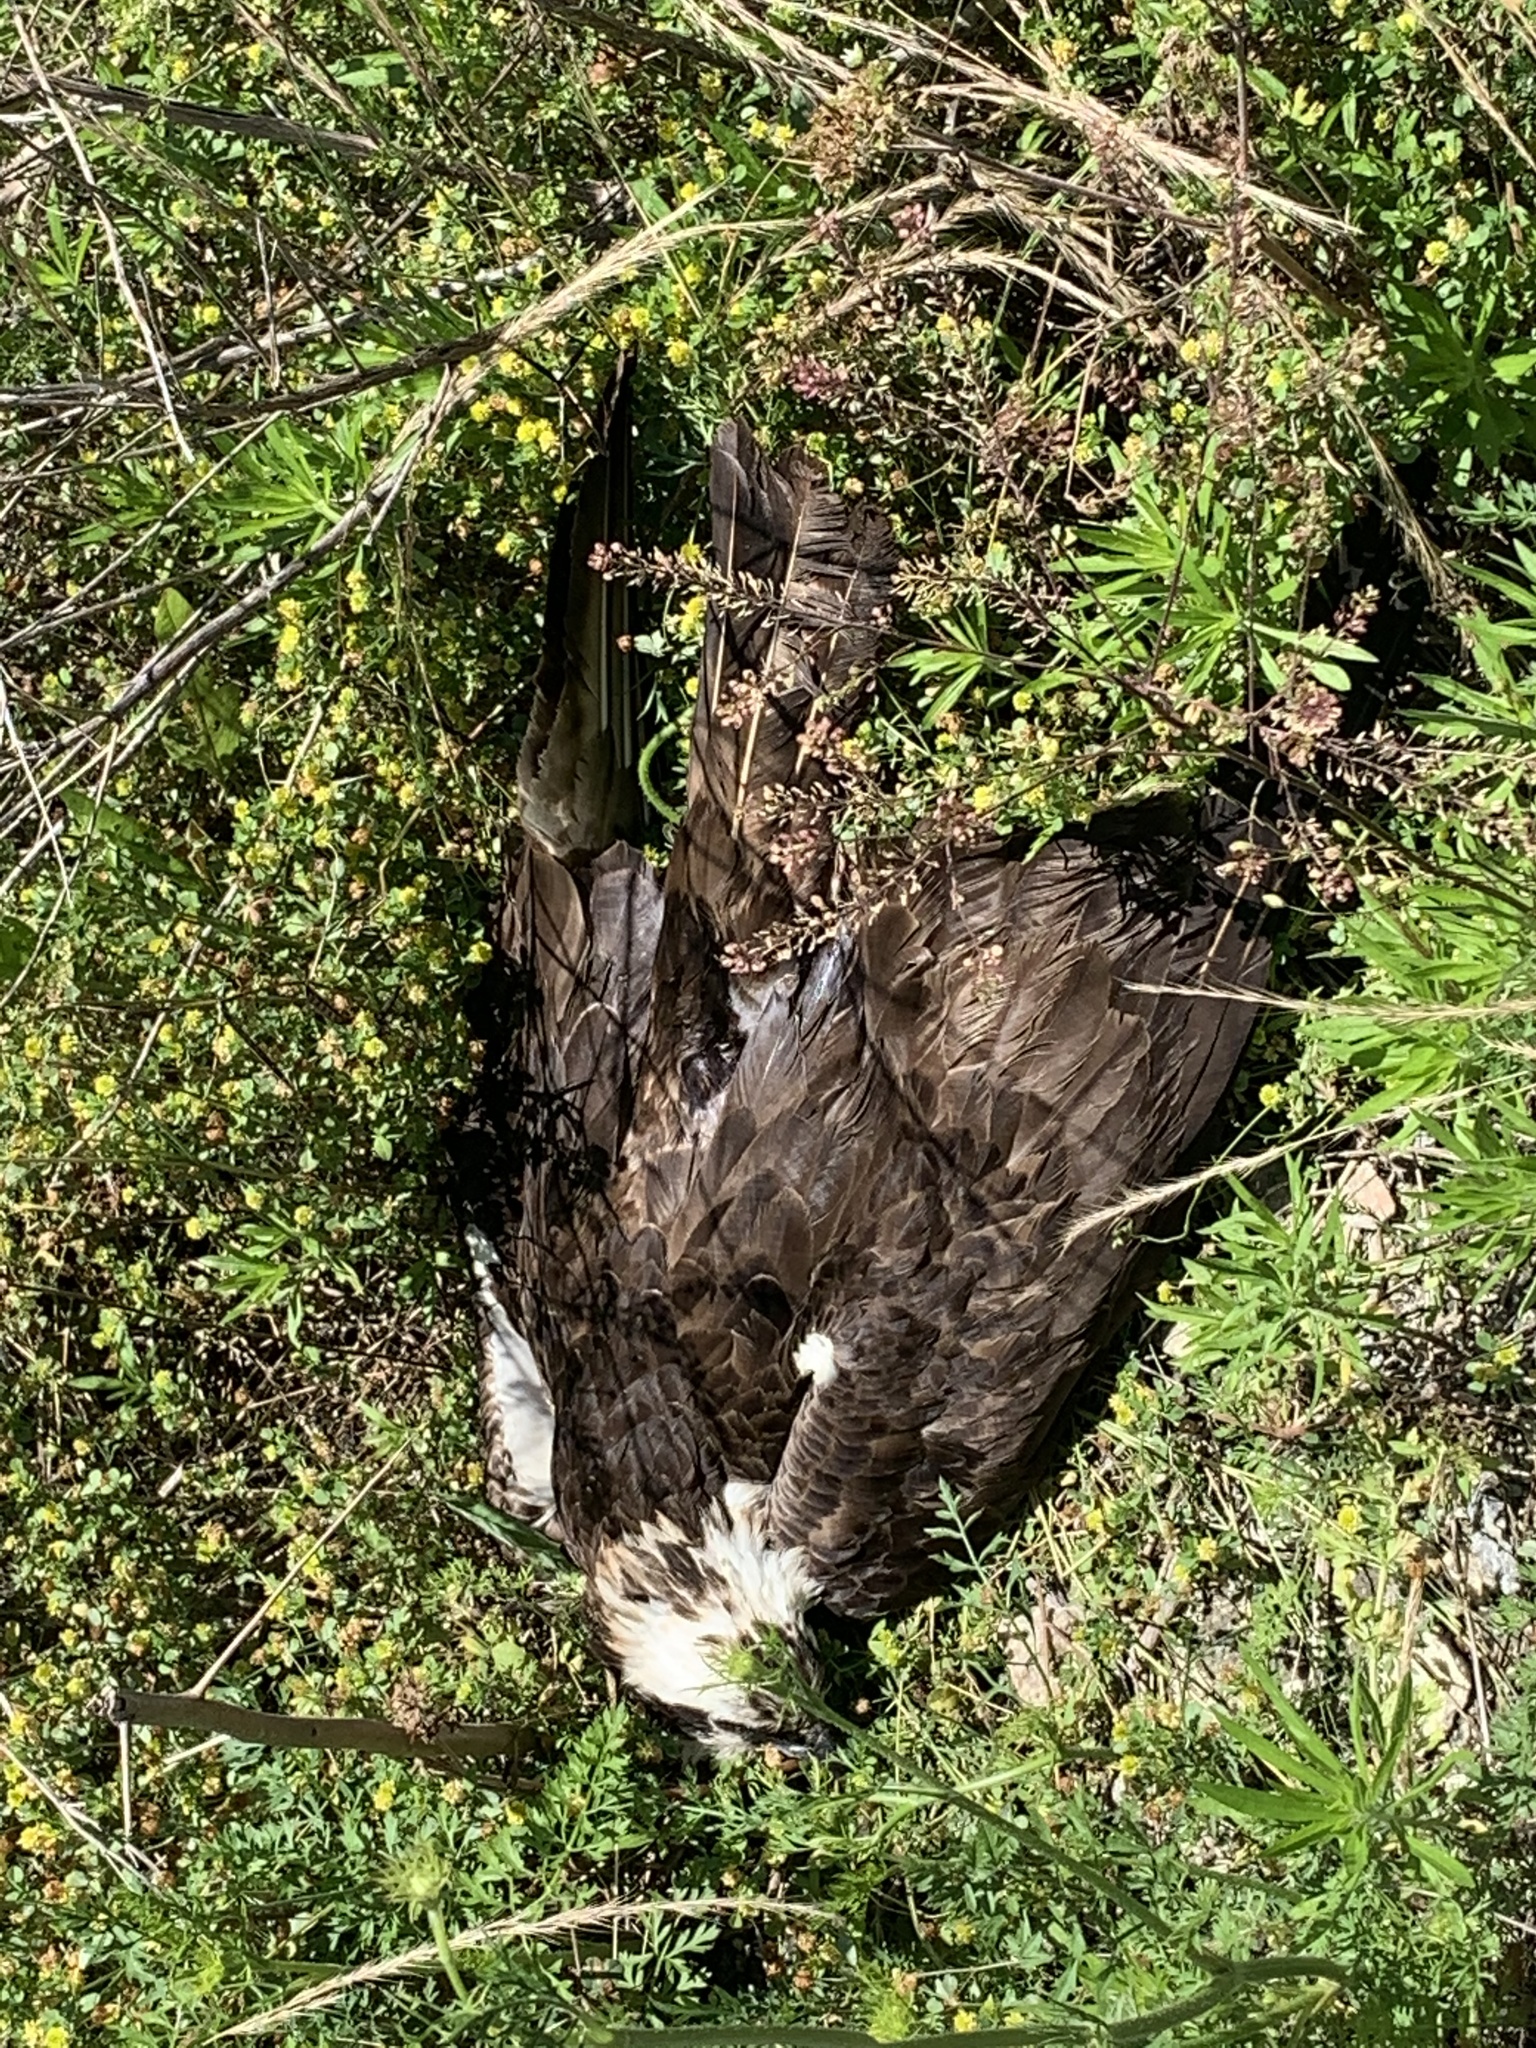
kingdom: Animalia
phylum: Chordata
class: Aves
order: Accipitriformes
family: Pandionidae
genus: Pandion
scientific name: Pandion haliaetus
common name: Osprey
